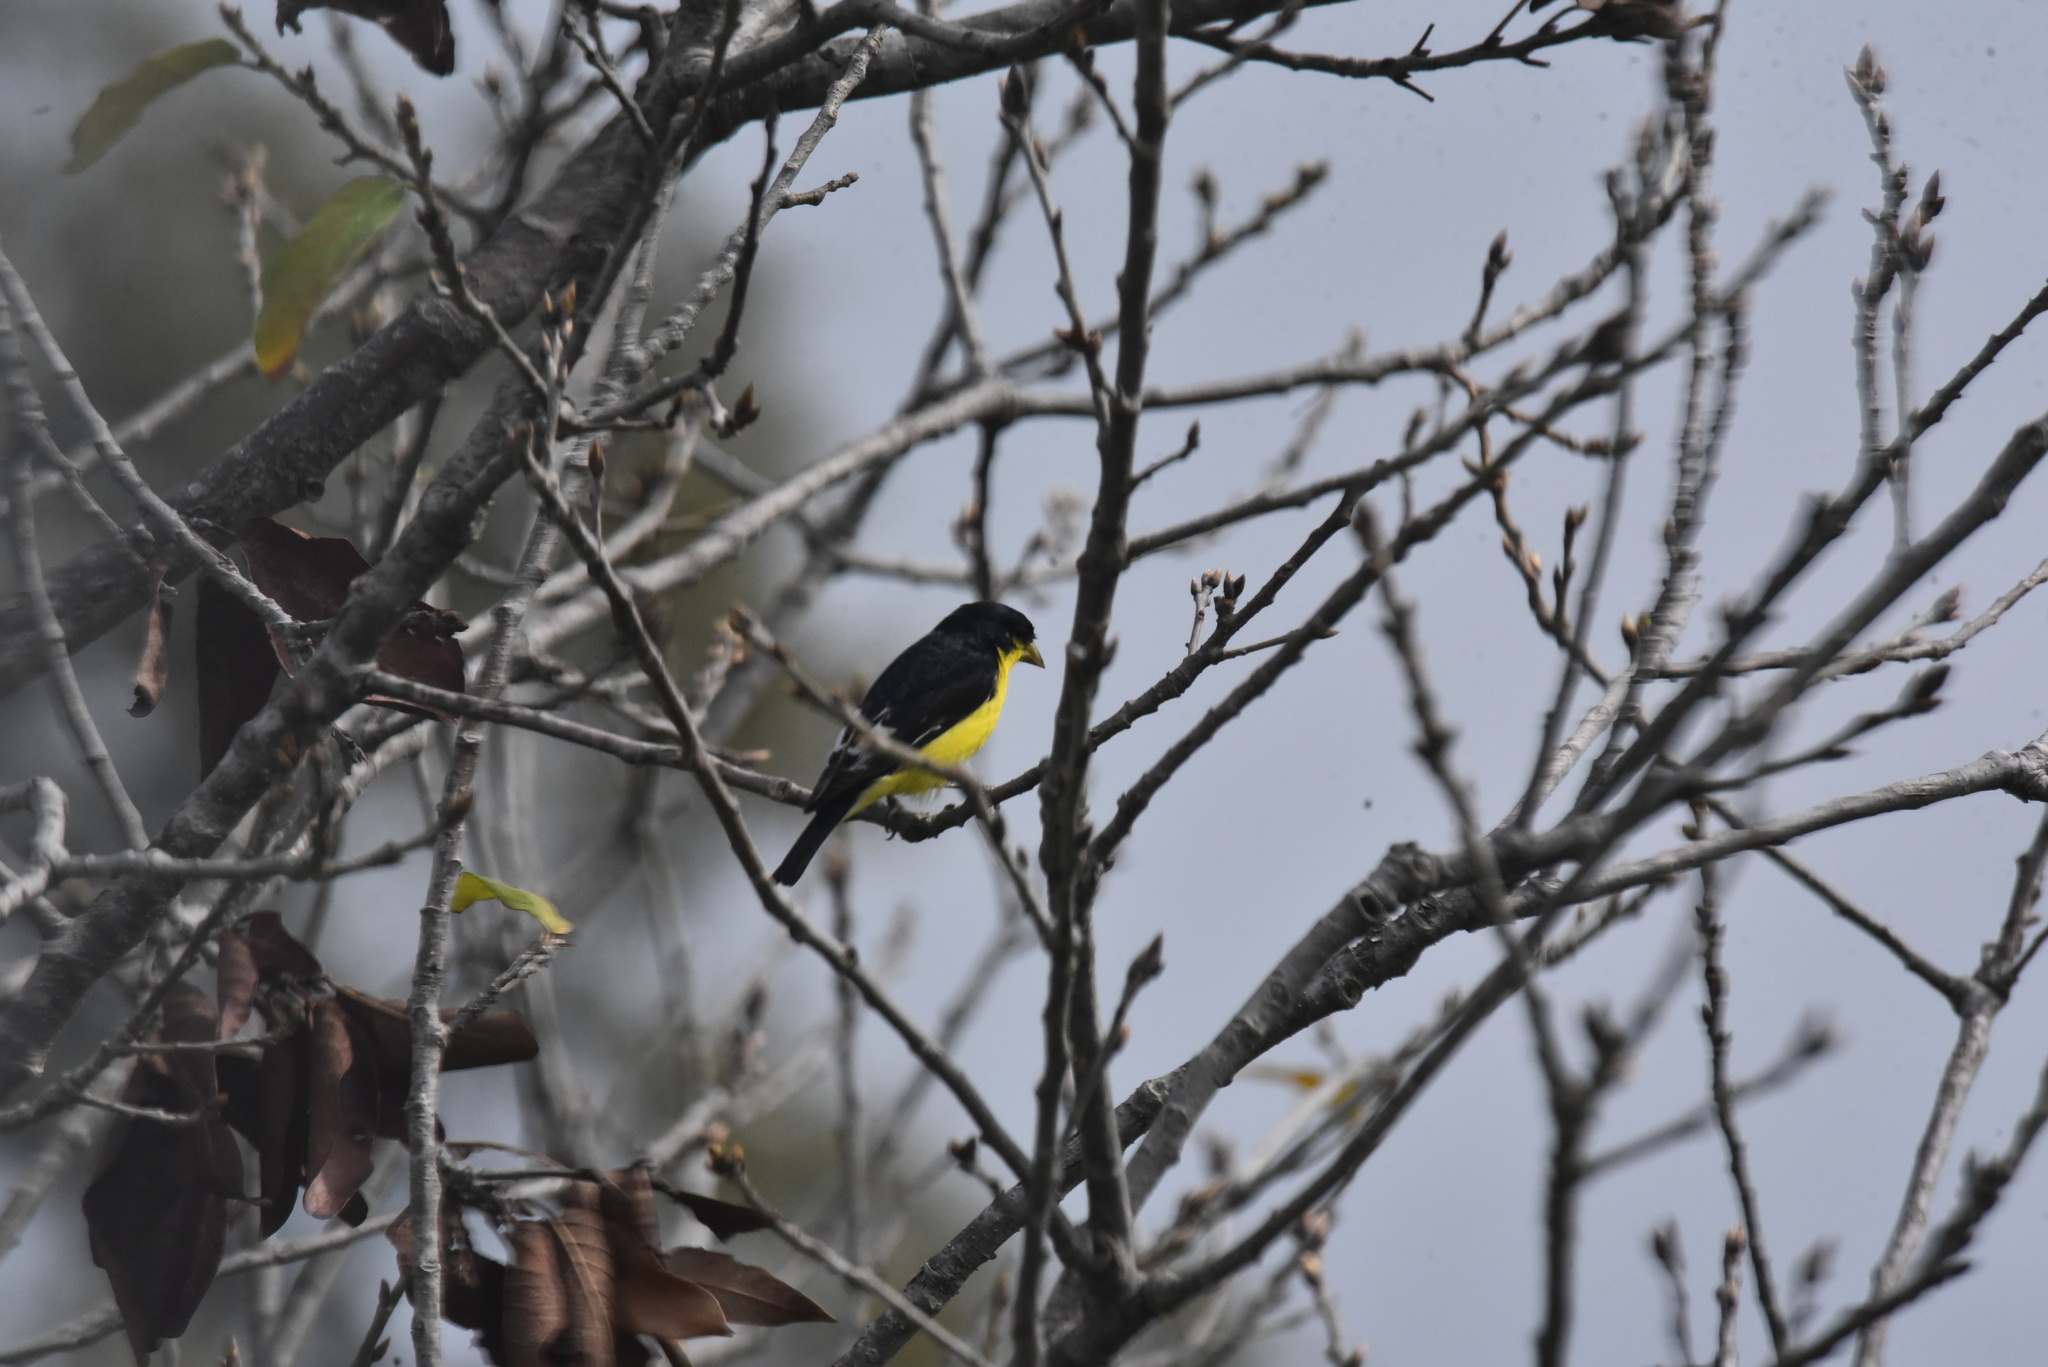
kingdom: Animalia
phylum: Chordata
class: Aves
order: Passeriformes
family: Fringillidae
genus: Spinus
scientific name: Spinus psaltria
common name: Lesser goldfinch
